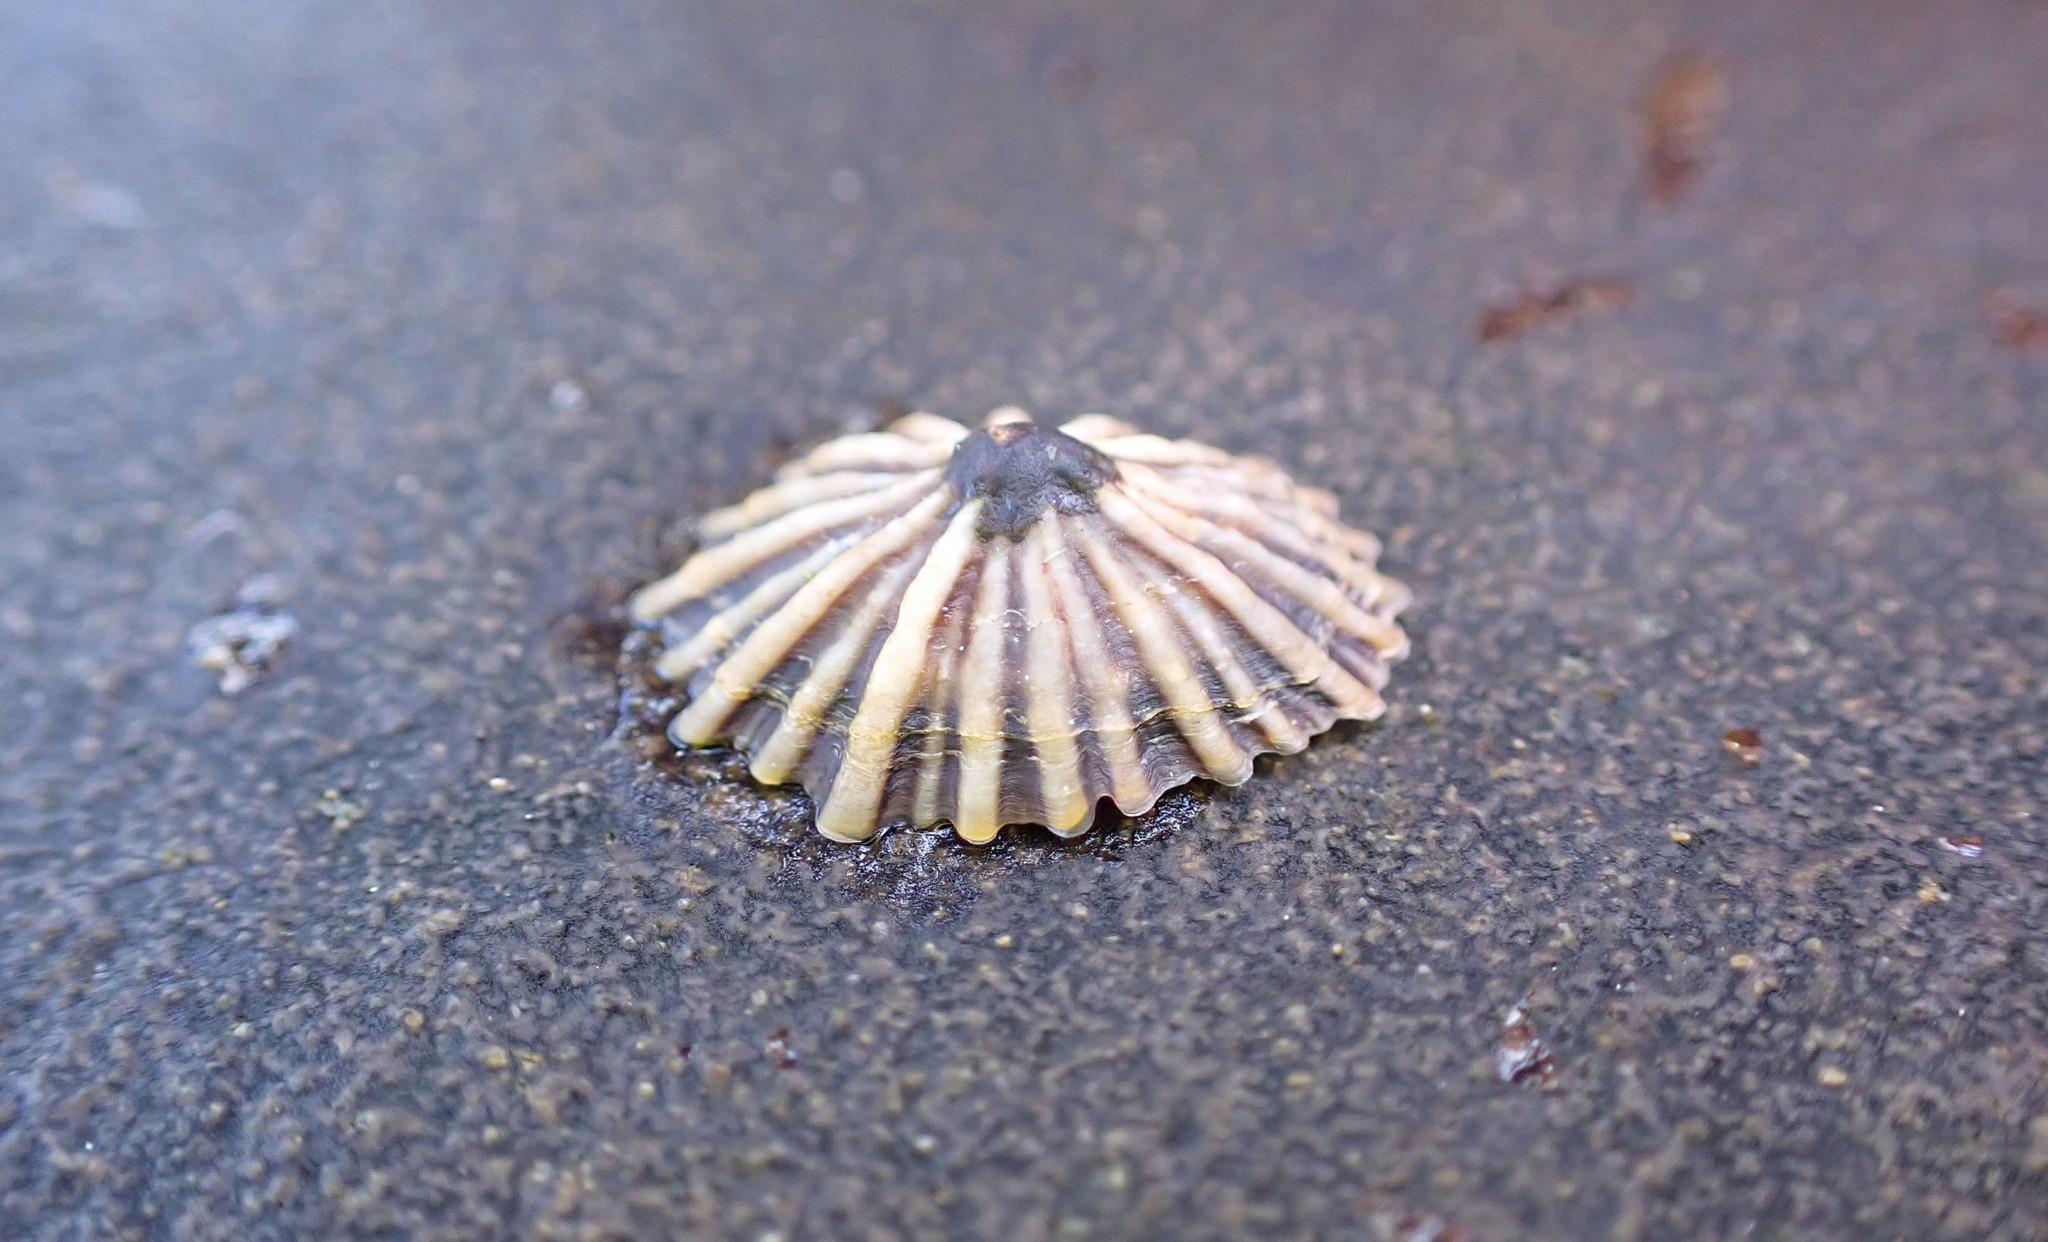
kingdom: Animalia
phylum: Mollusca
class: Gastropoda
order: Siphonariida
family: Siphonariidae
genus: Siphonaria
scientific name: Siphonaria diemenensis
